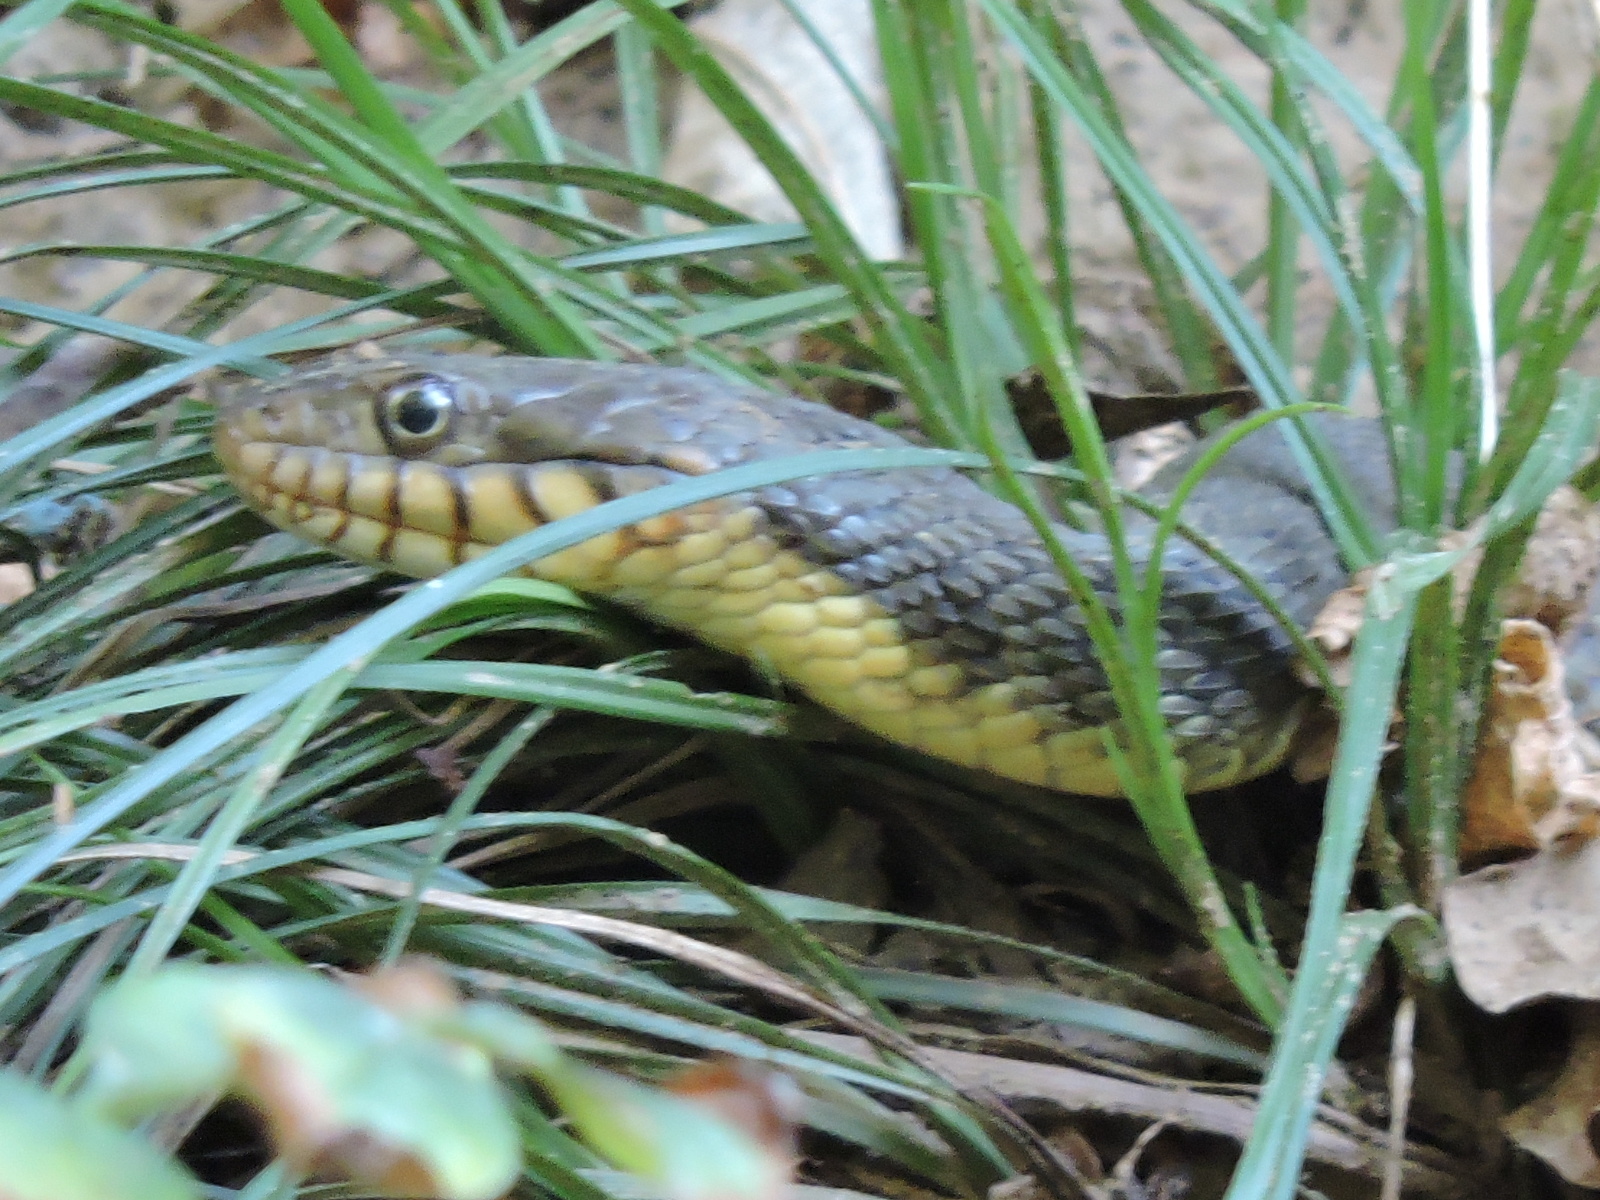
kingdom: Animalia
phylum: Chordata
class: Squamata
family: Colubridae
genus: Nerodia
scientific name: Nerodia erythrogaster
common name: Plainbelly water snake
